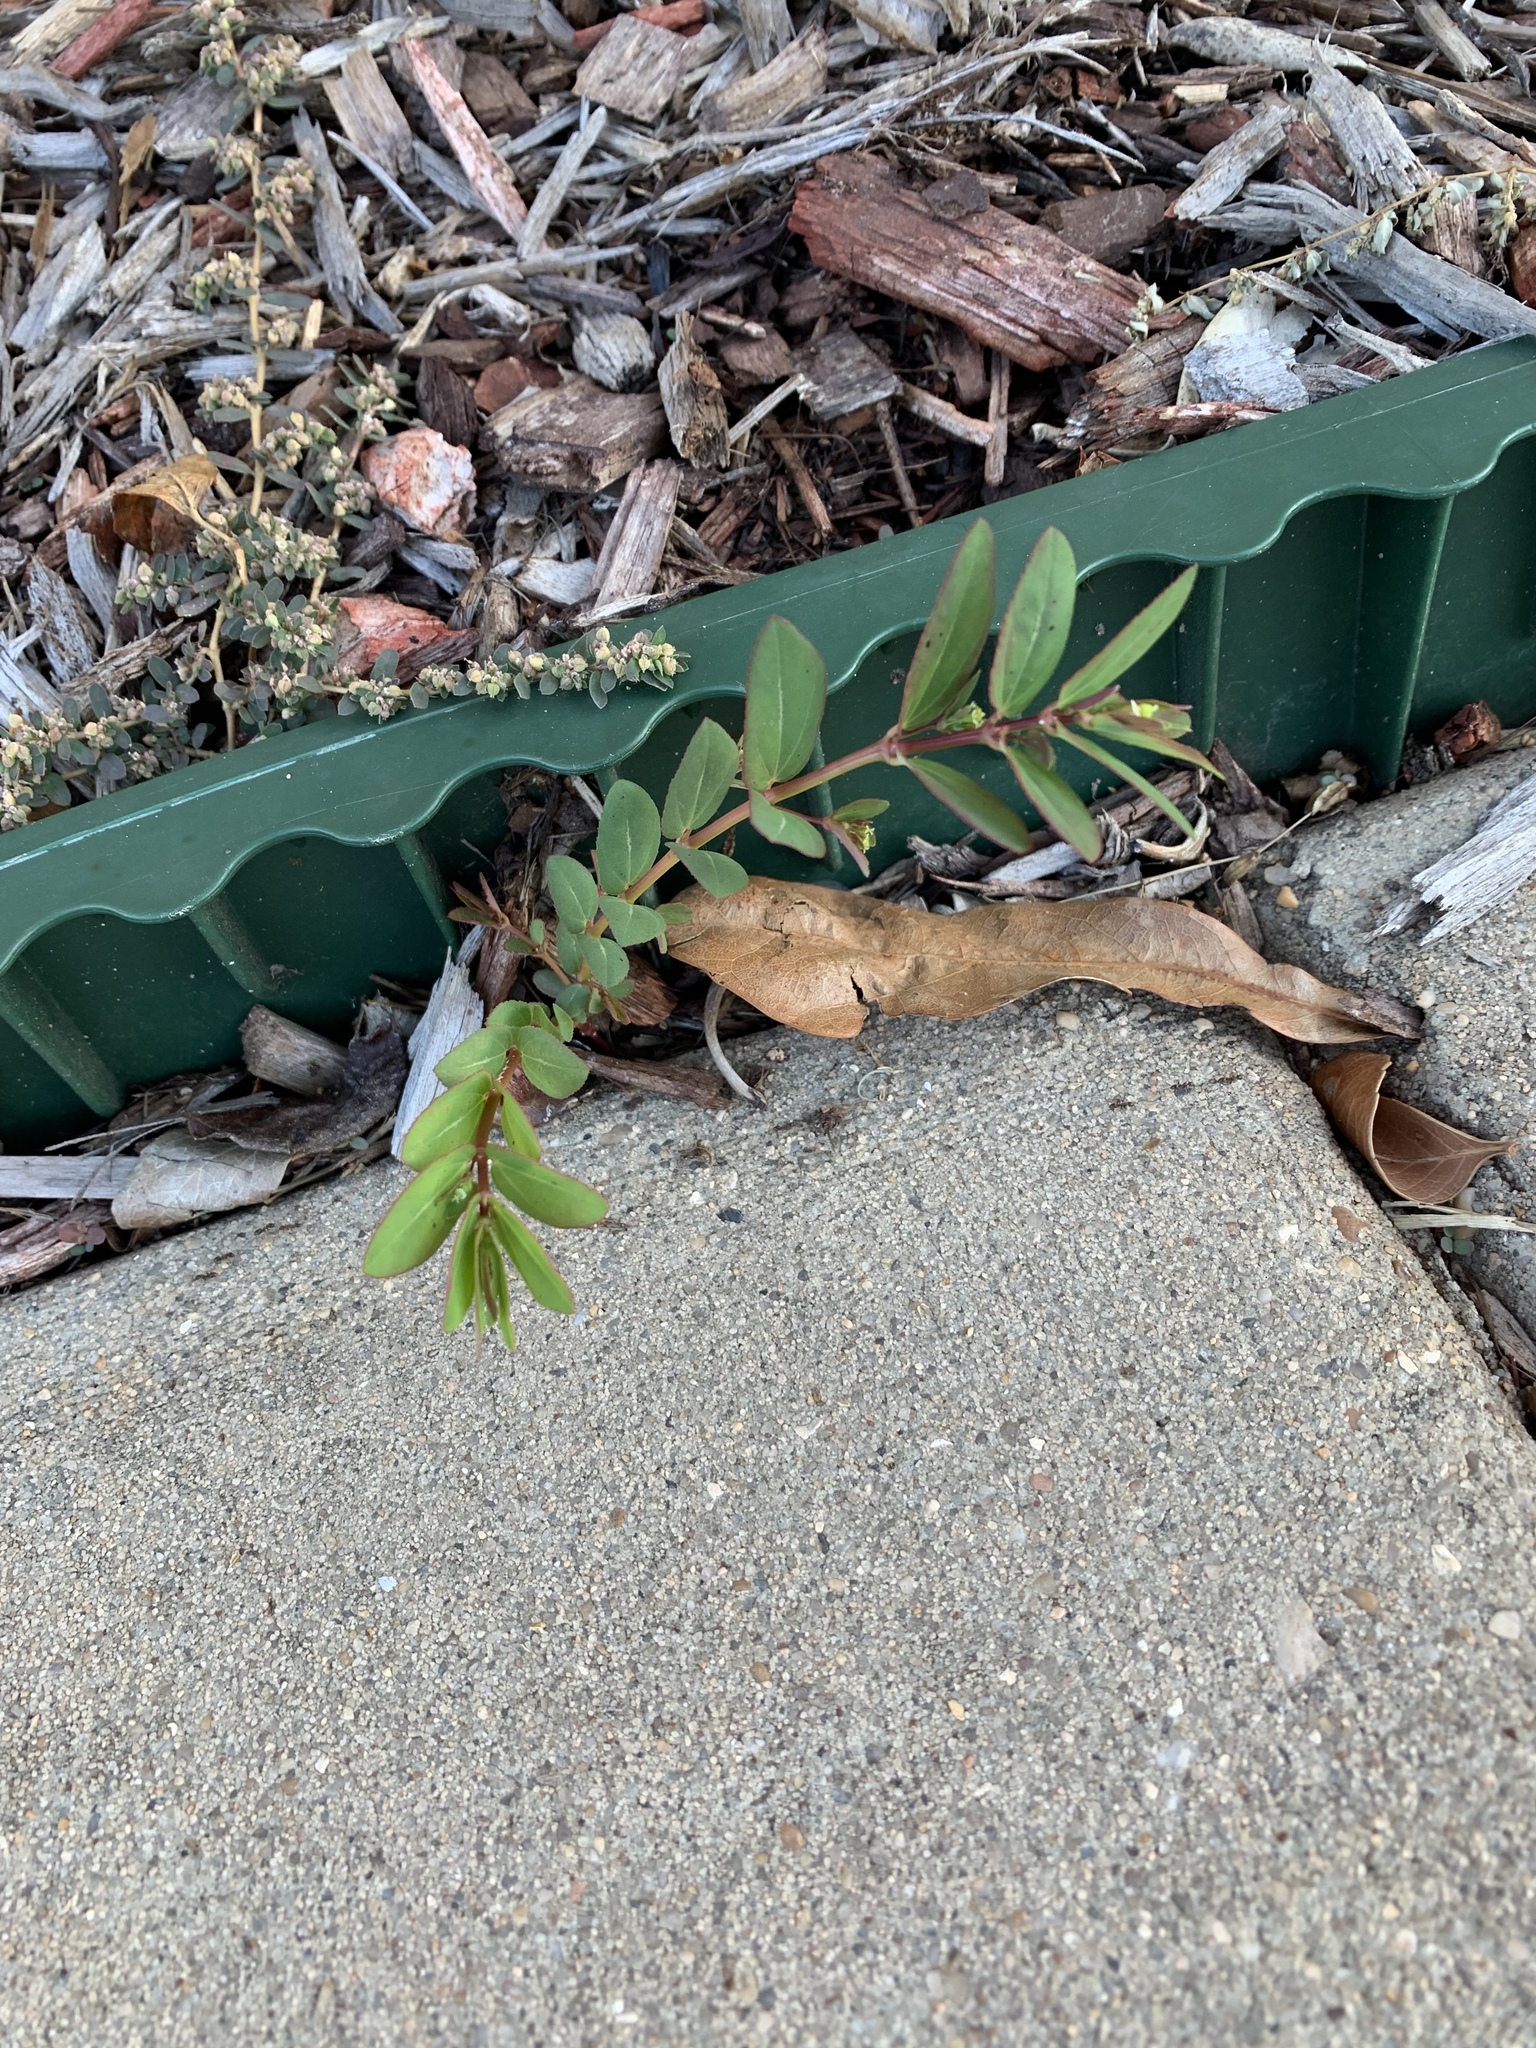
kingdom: Plantae
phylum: Tracheophyta
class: Magnoliopsida
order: Malpighiales
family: Euphorbiaceae
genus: Euphorbia
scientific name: Euphorbia hyssopifolia
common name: Hyssopleaf sandmat
